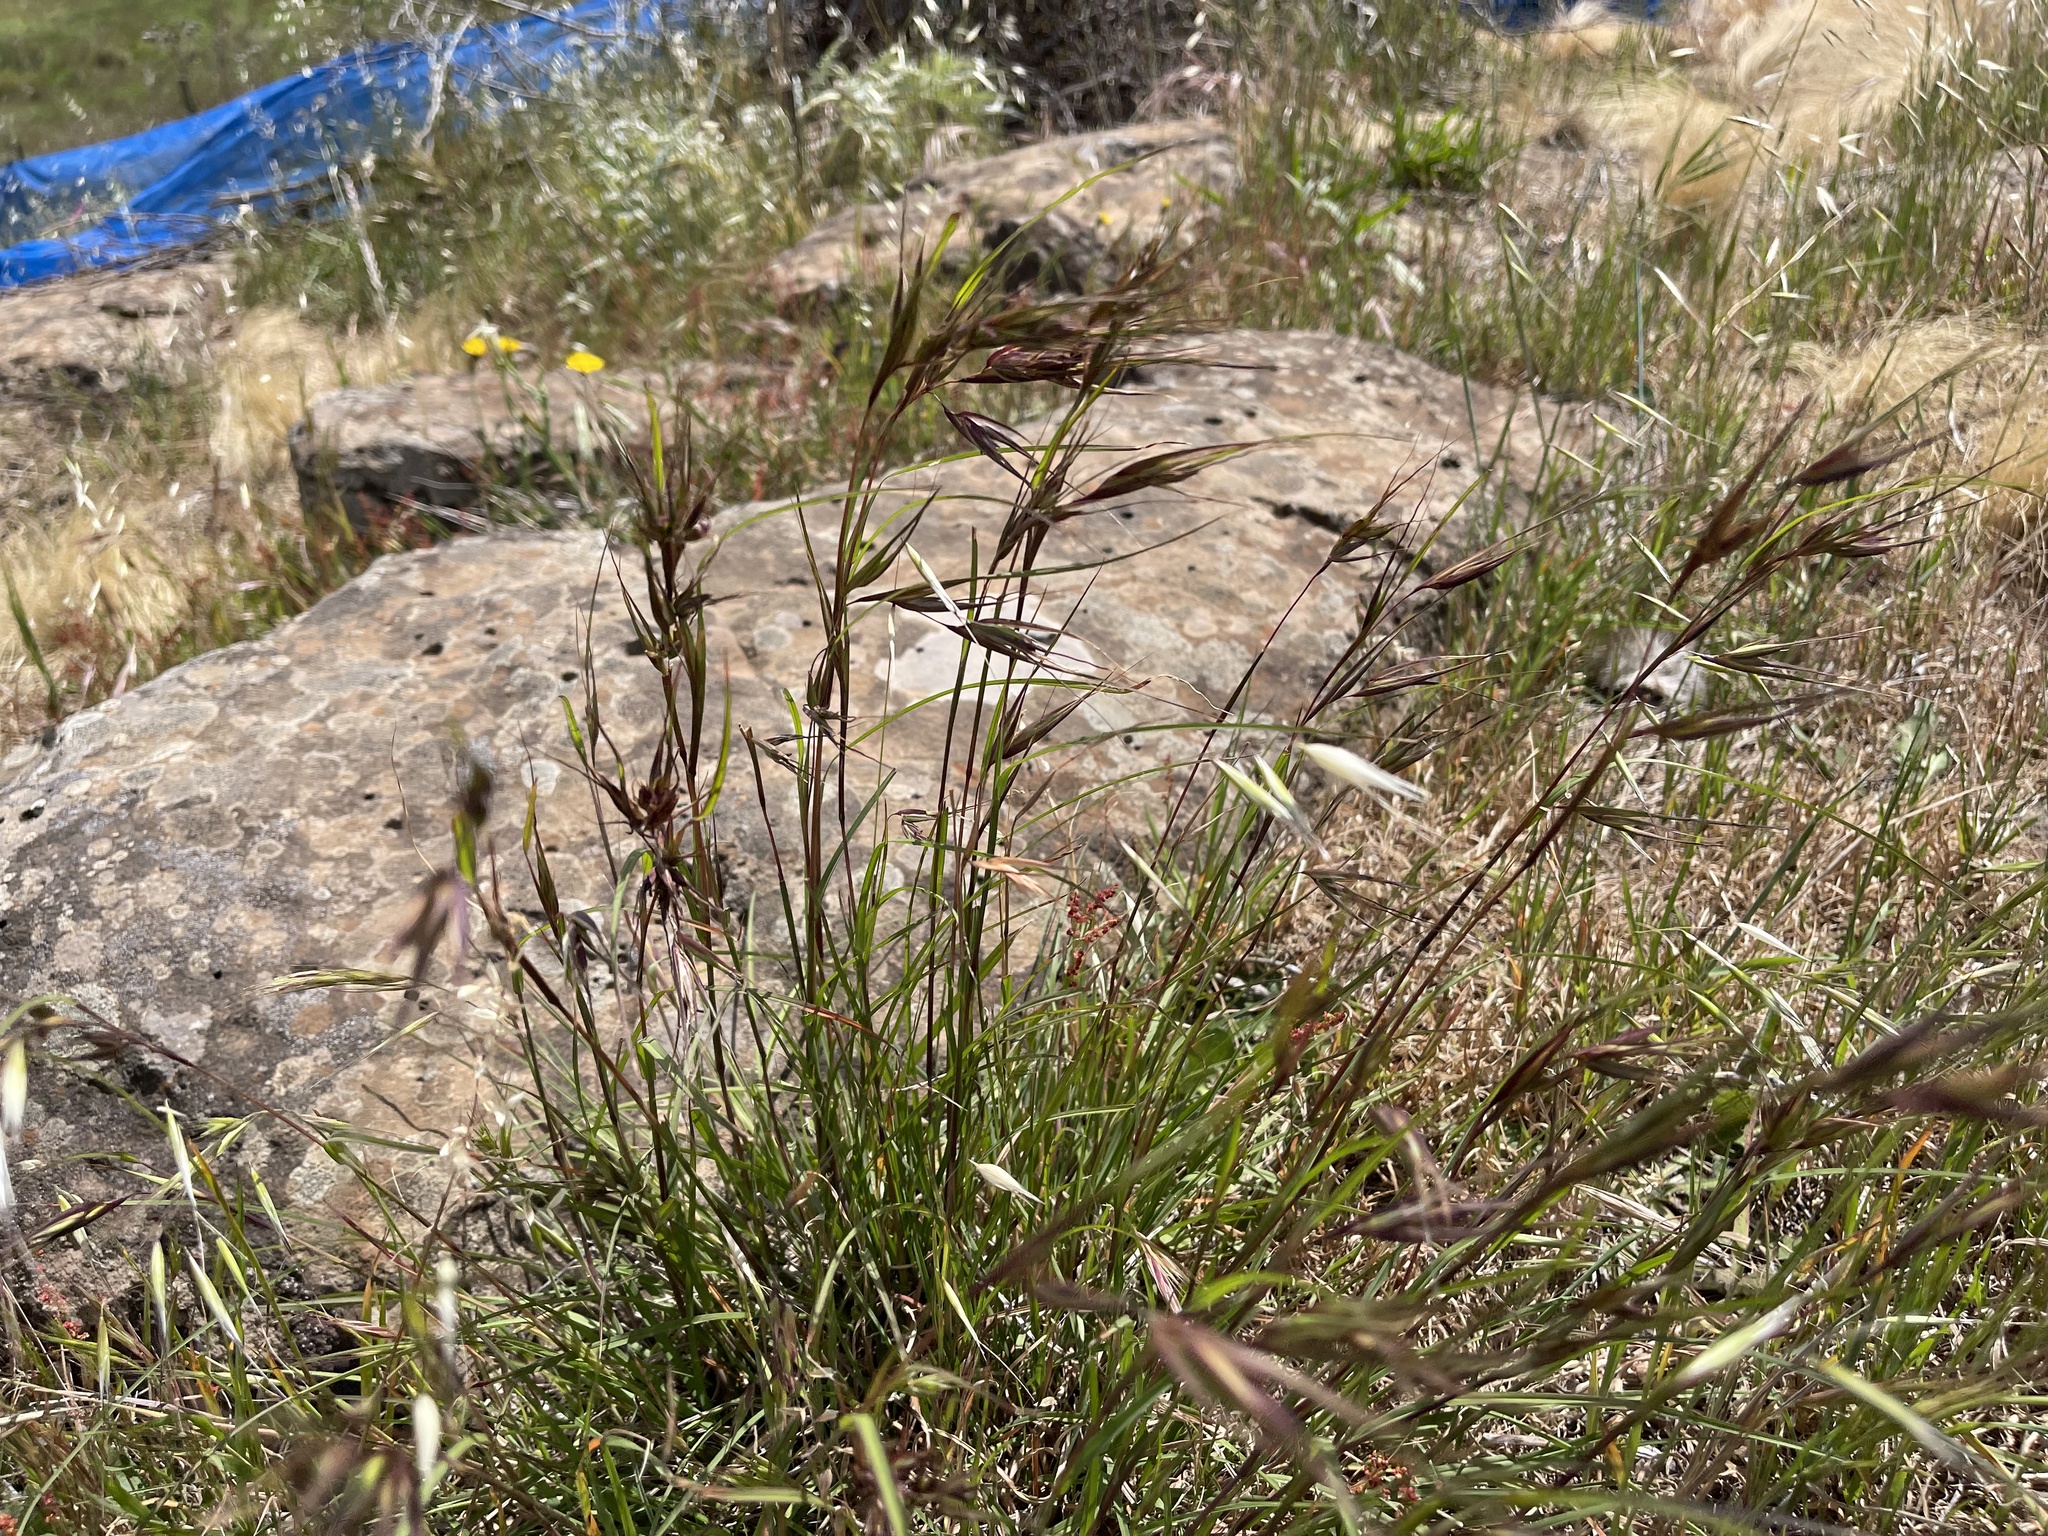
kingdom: Plantae
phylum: Tracheophyta
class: Liliopsida
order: Poales
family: Poaceae
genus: Themeda
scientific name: Themeda triandra
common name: Kangaroo grass
